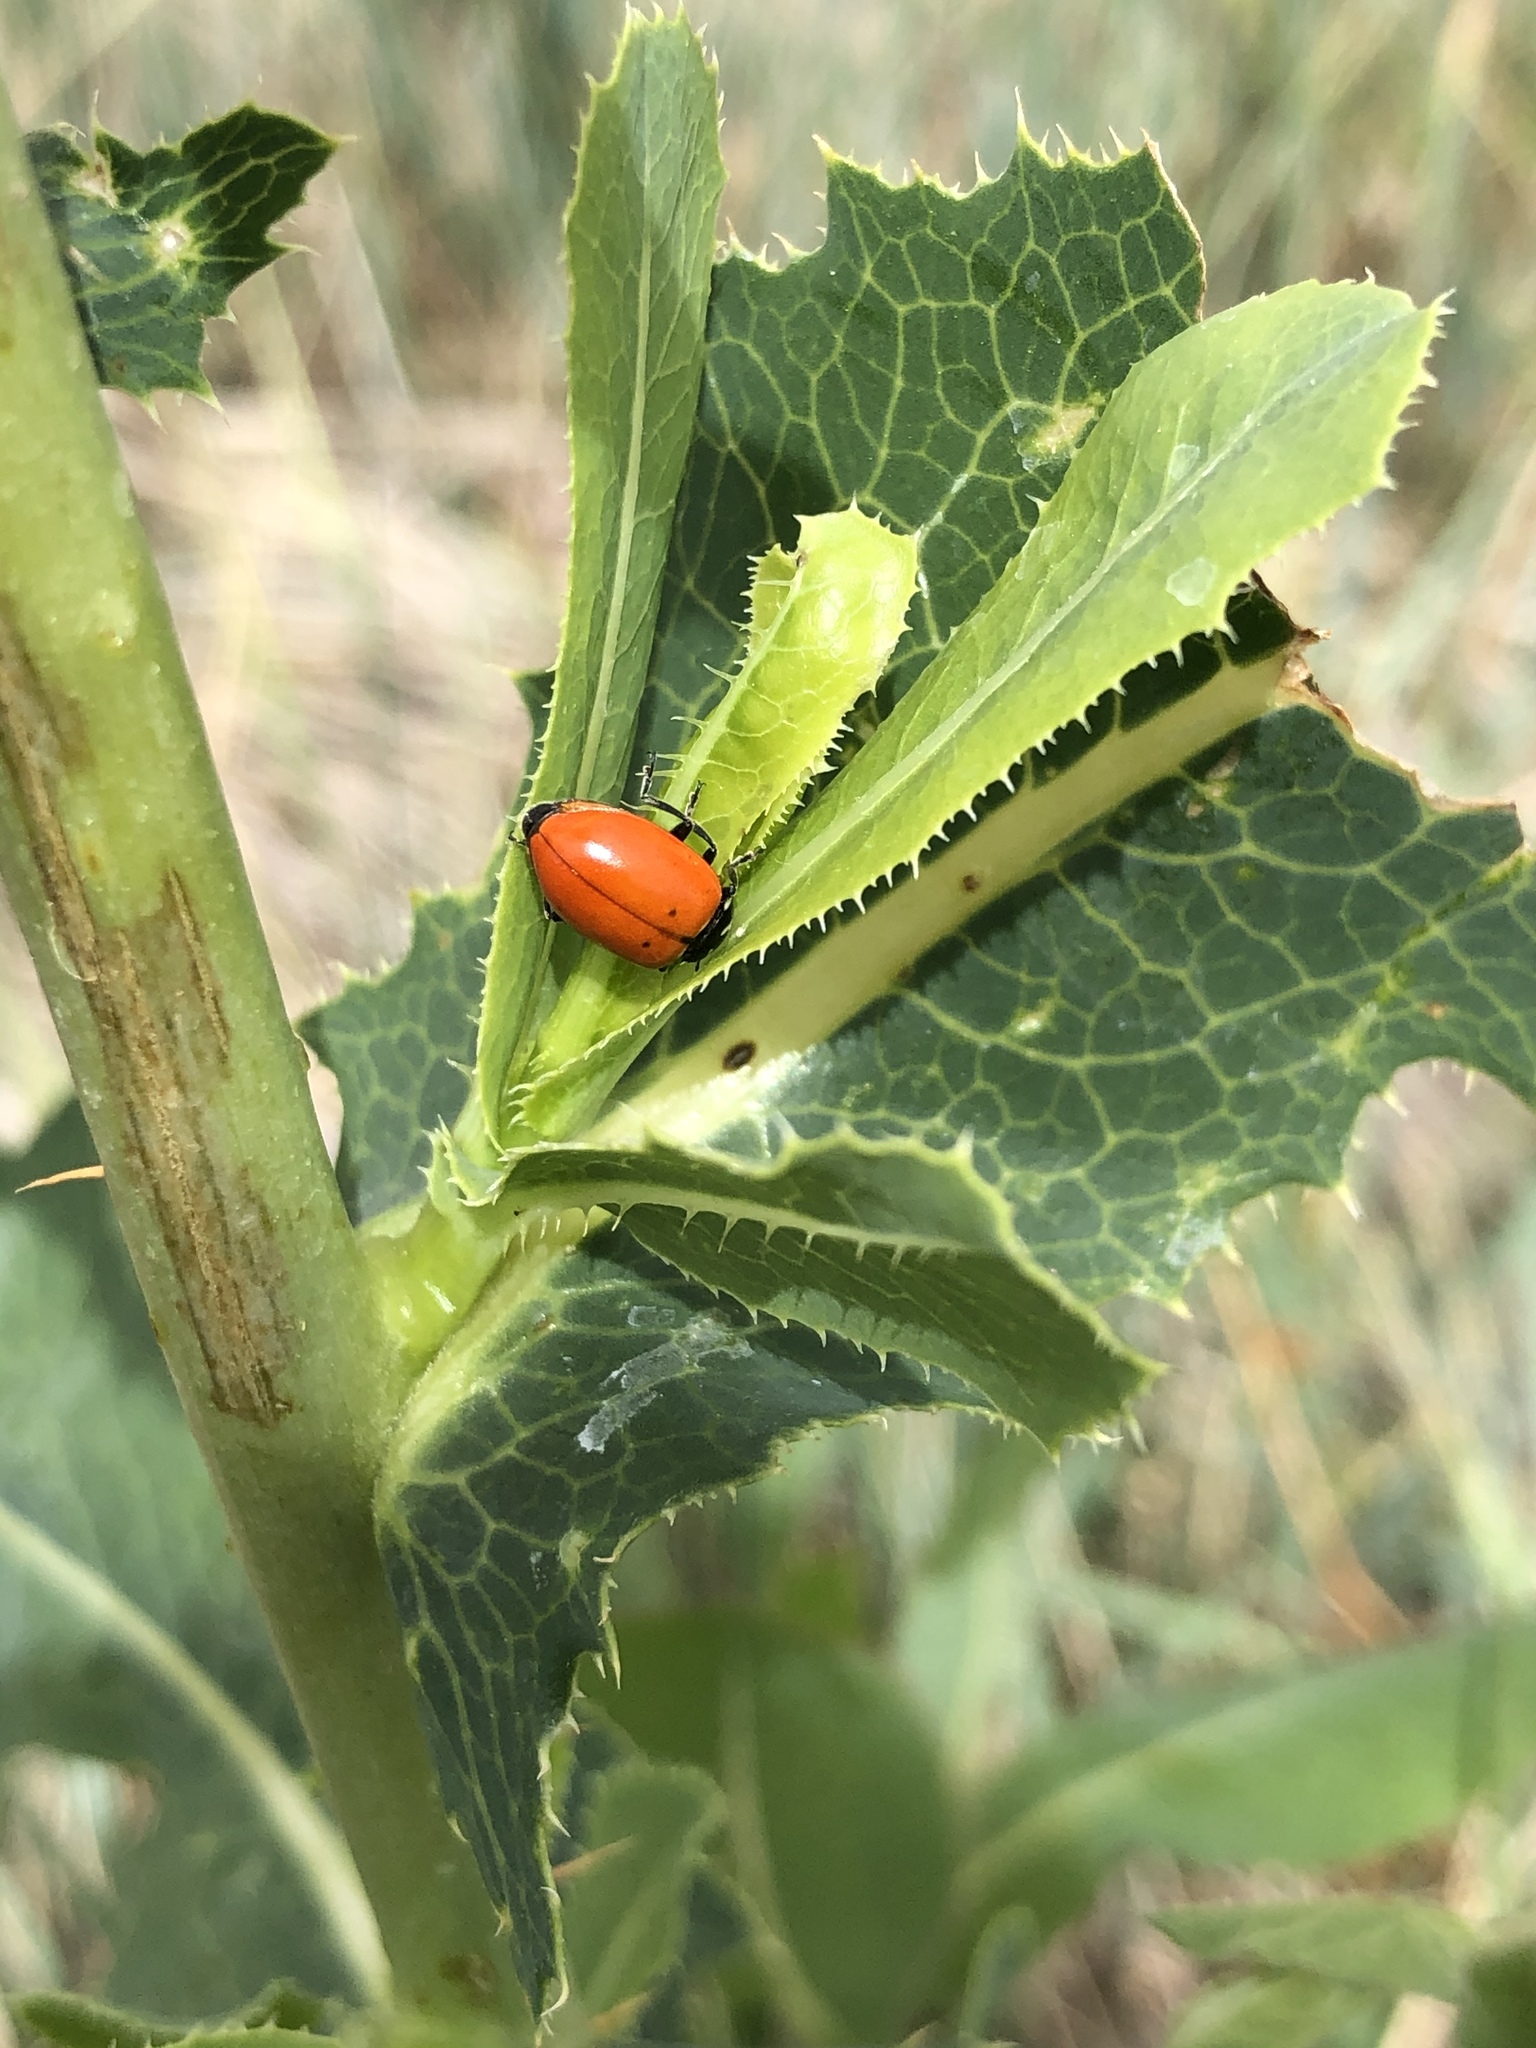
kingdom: Animalia
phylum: Arthropoda
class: Insecta
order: Coleoptera
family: Coccinellidae
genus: Hippodamia
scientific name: Hippodamia convergens
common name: Convergent lady beetle
